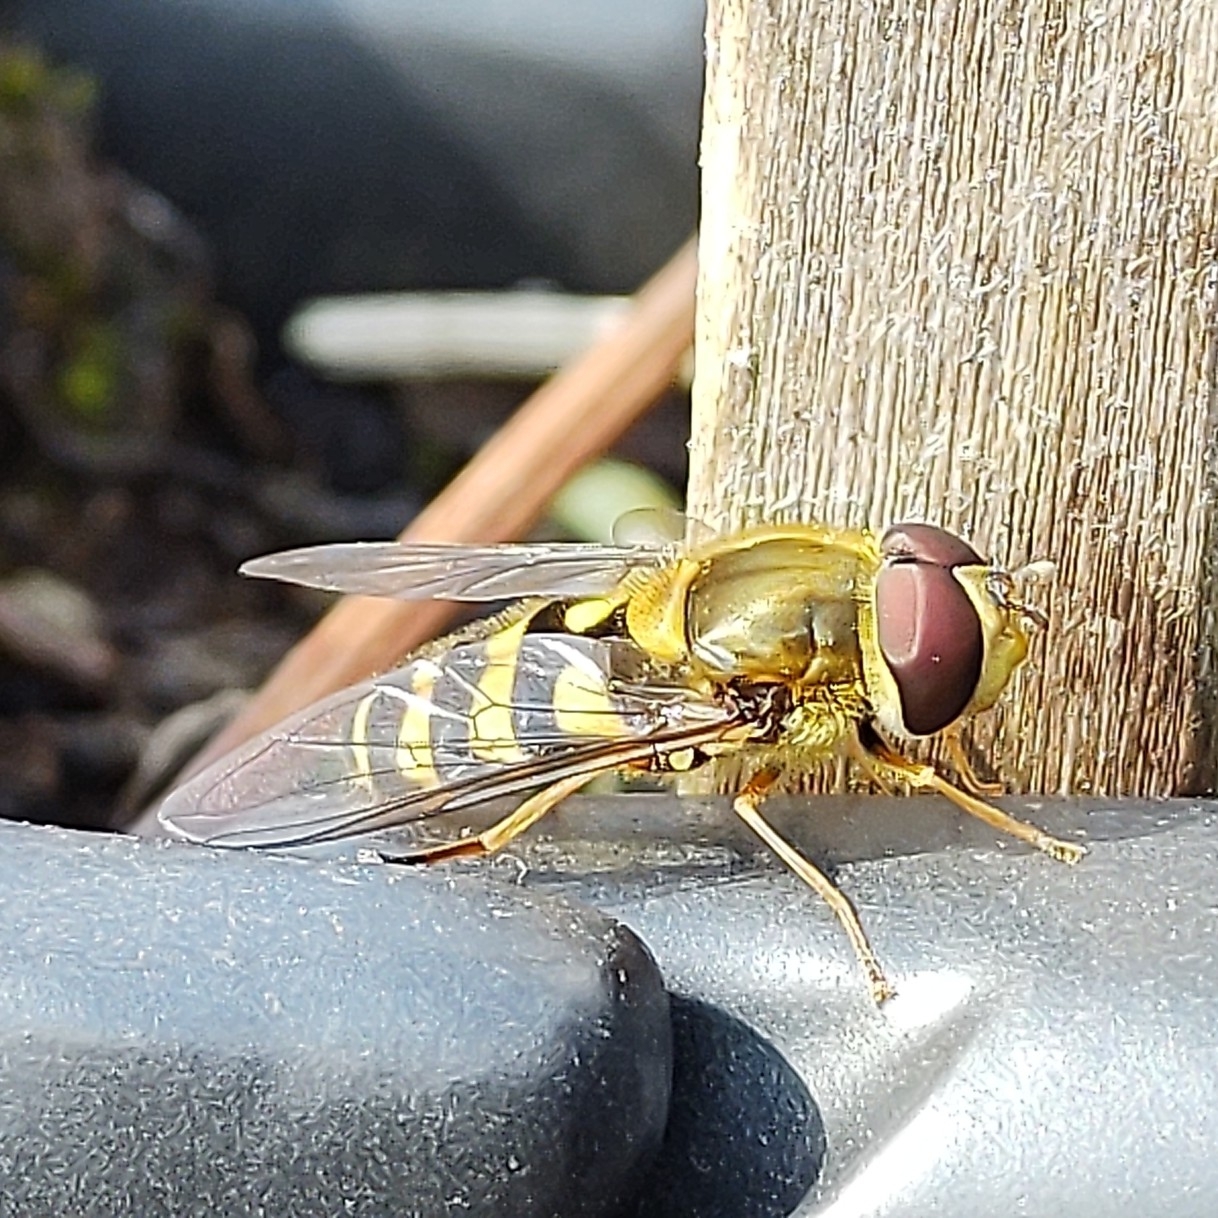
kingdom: Animalia
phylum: Arthropoda
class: Insecta
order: Diptera
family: Syrphidae
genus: Syrphus
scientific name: Syrphus
